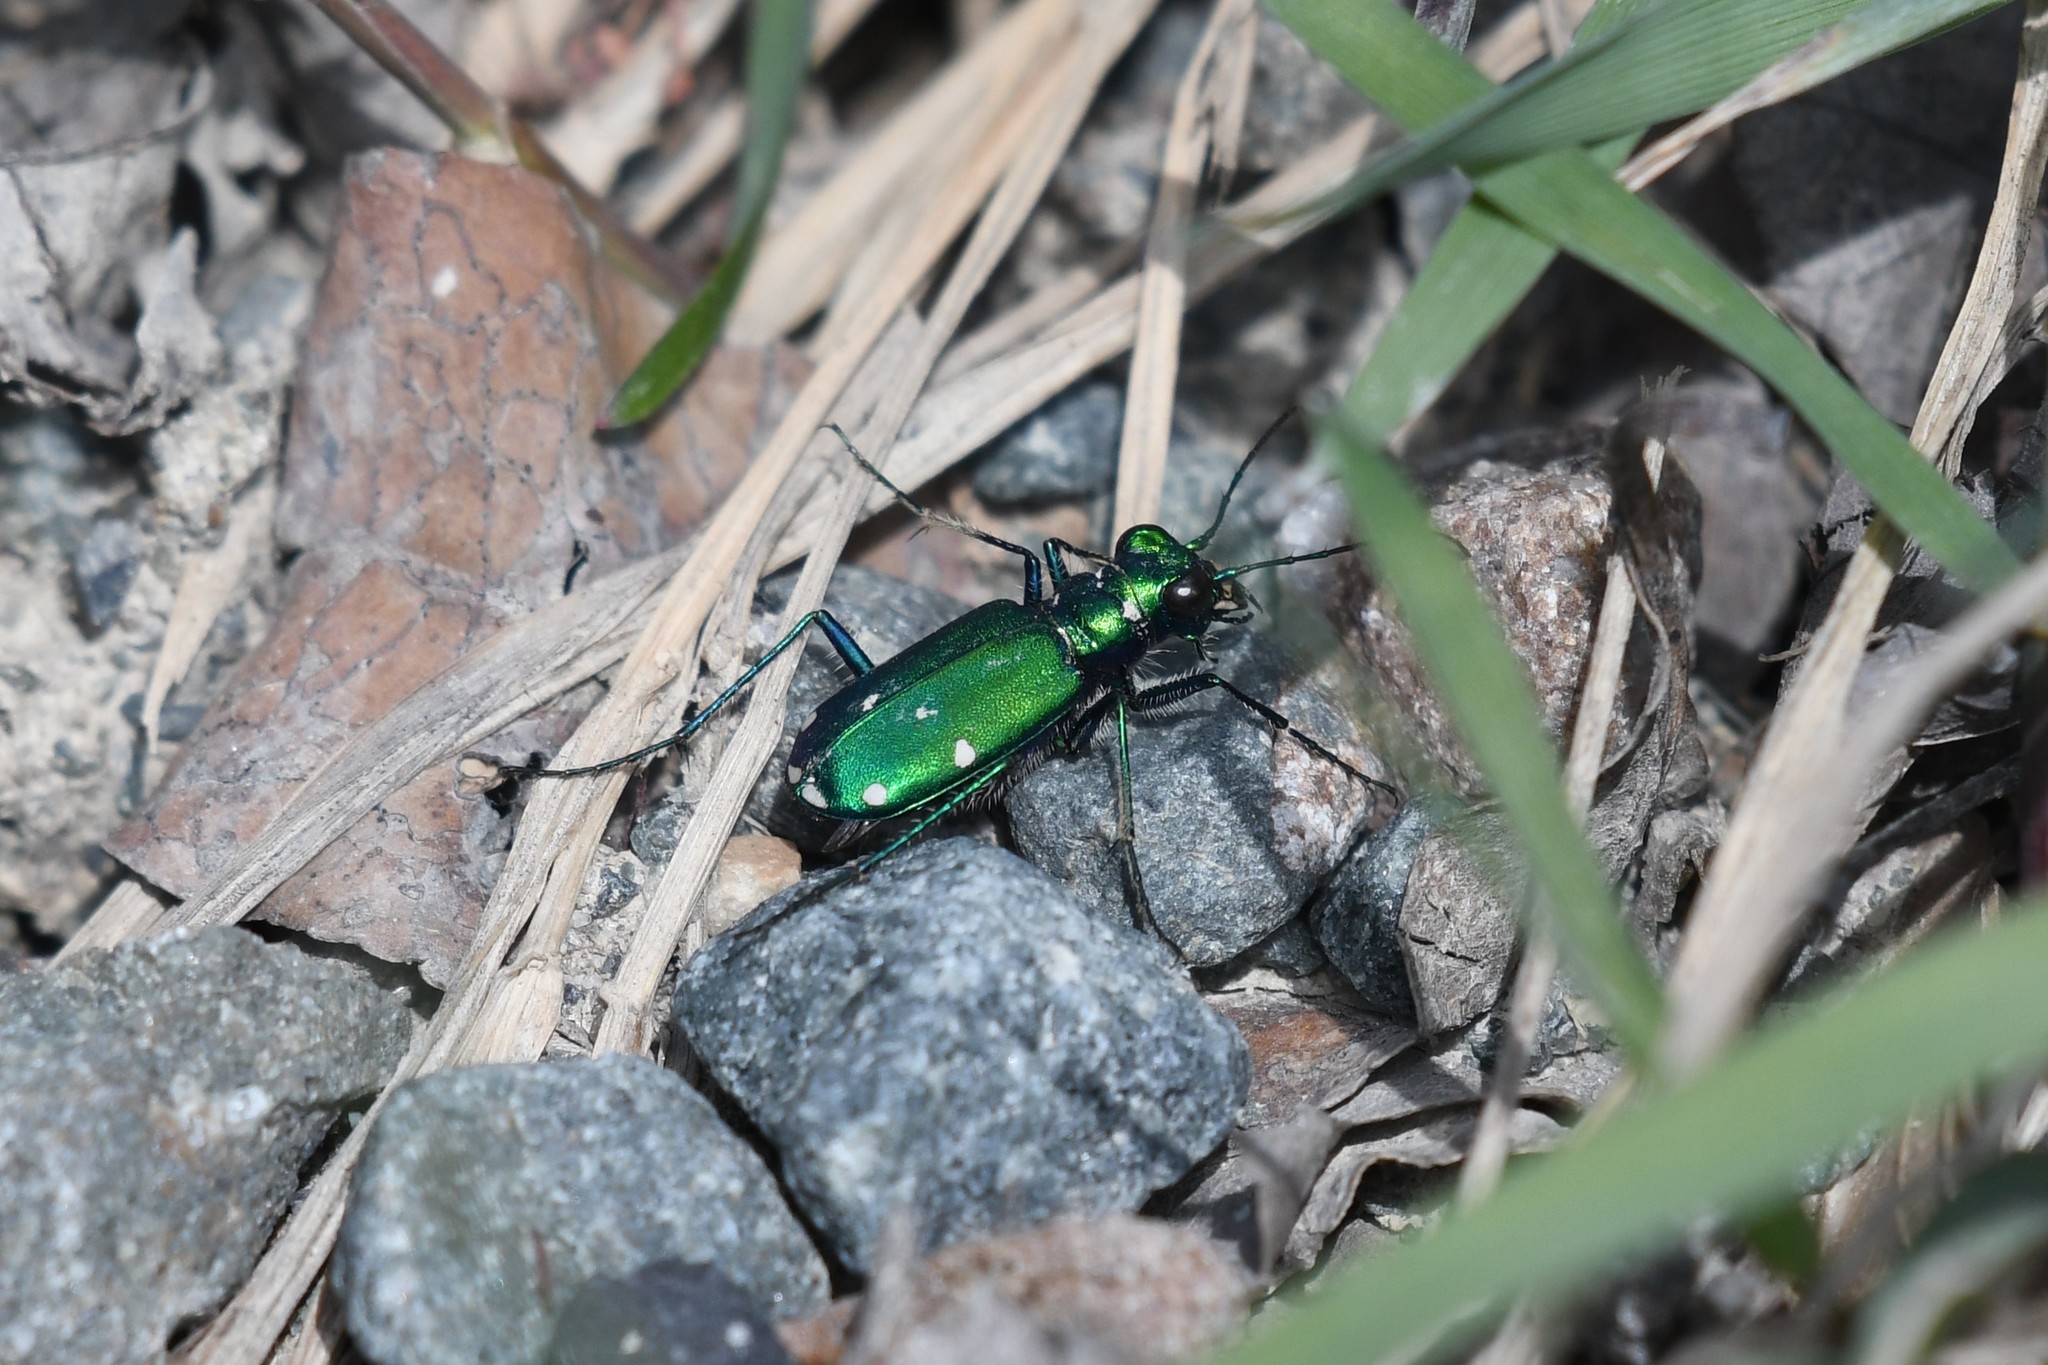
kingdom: Animalia
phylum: Arthropoda
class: Insecta
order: Coleoptera
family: Carabidae
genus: Cicindela
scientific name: Cicindela sexguttata
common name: Six-spotted tiger beetle
